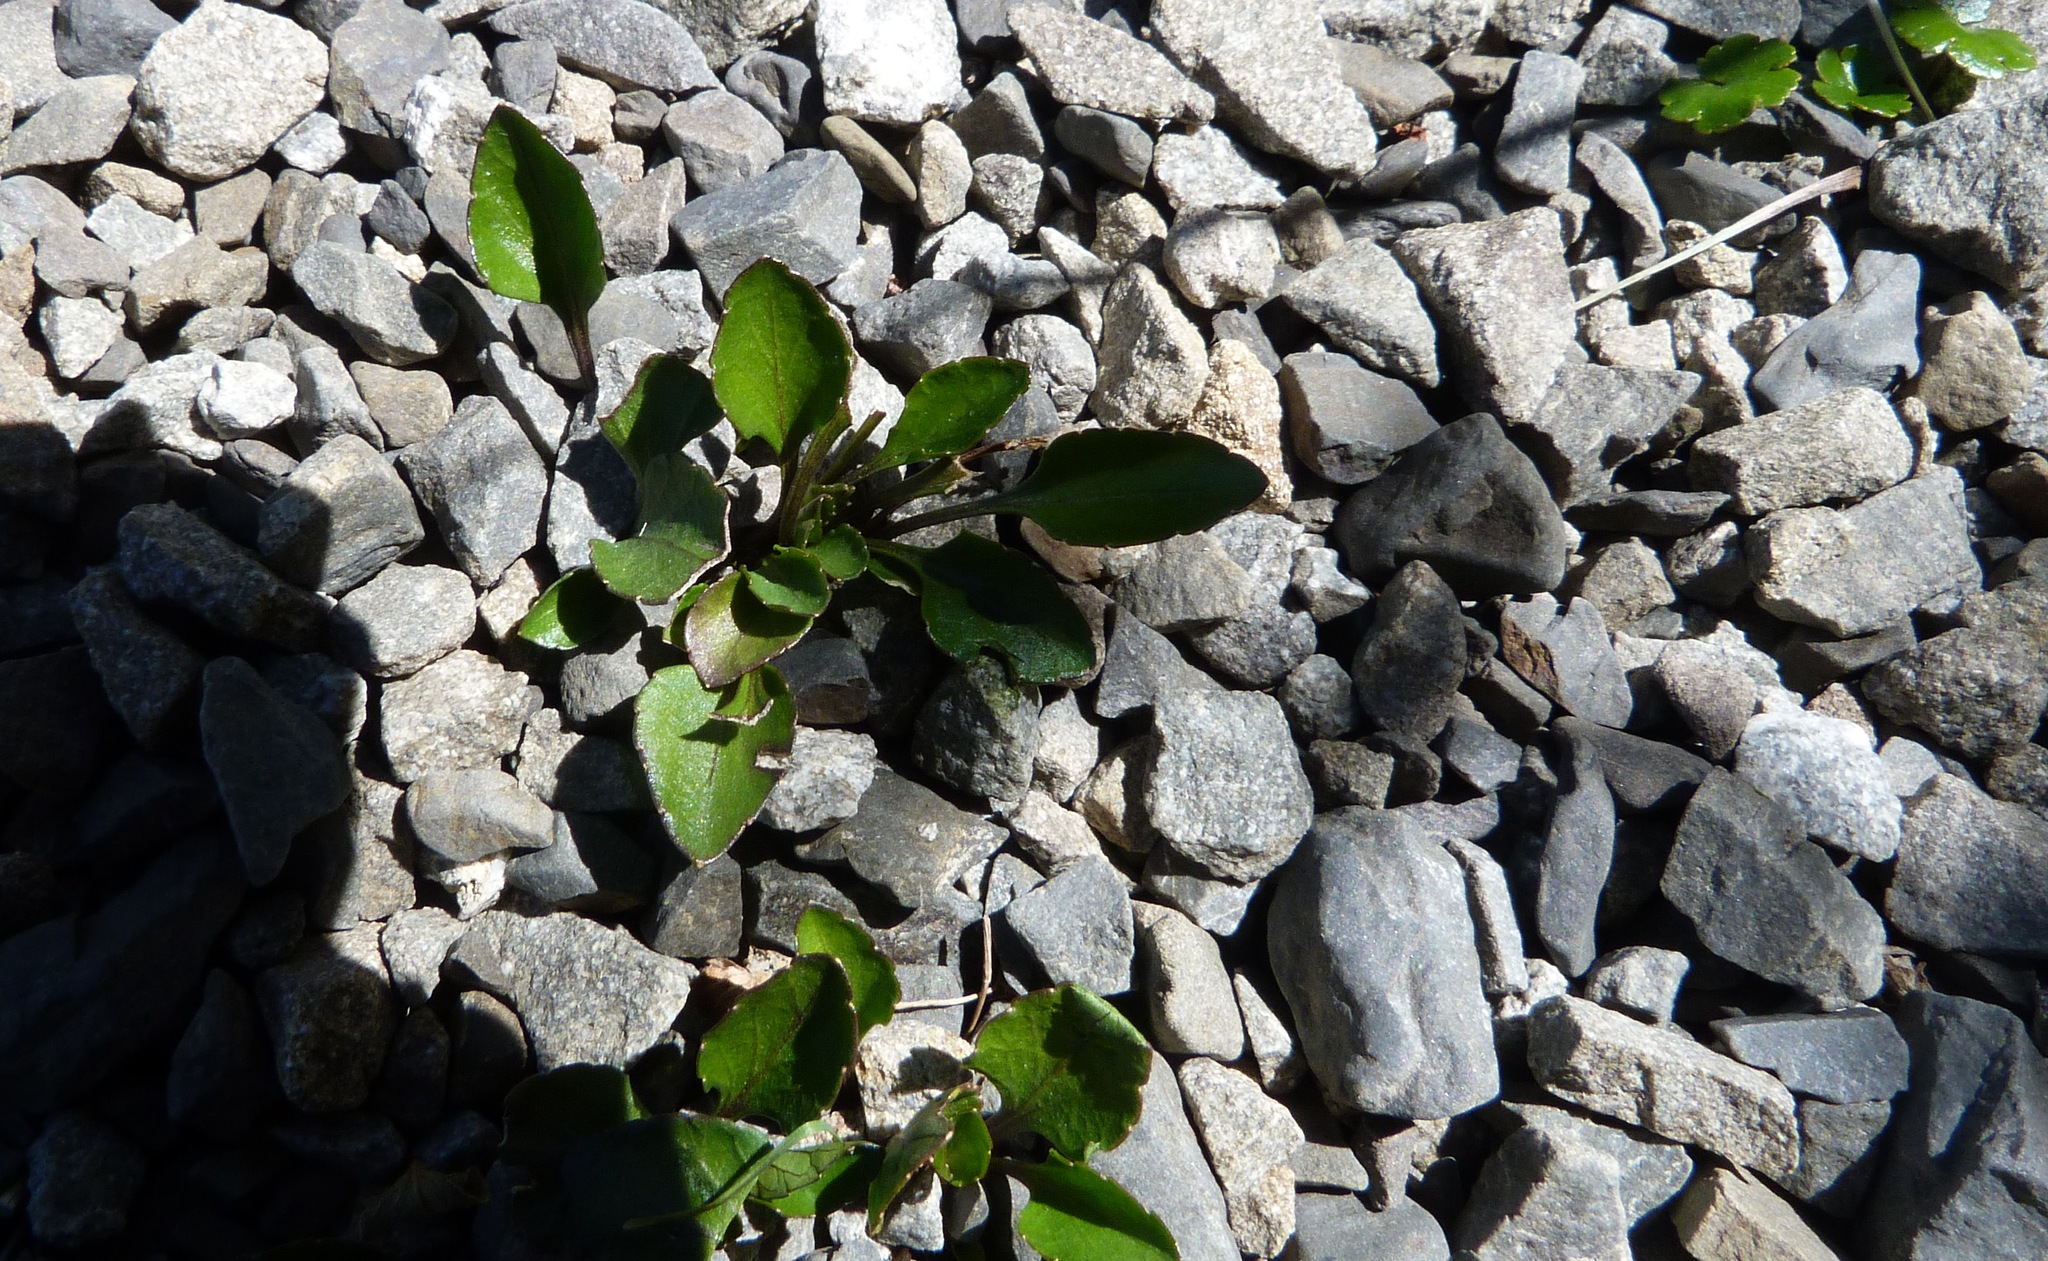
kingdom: Plantae
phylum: Tracheophyta
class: Magnoliopsida
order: Malpighiales
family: Violaceae
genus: Viola
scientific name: Viola cunninghamii
